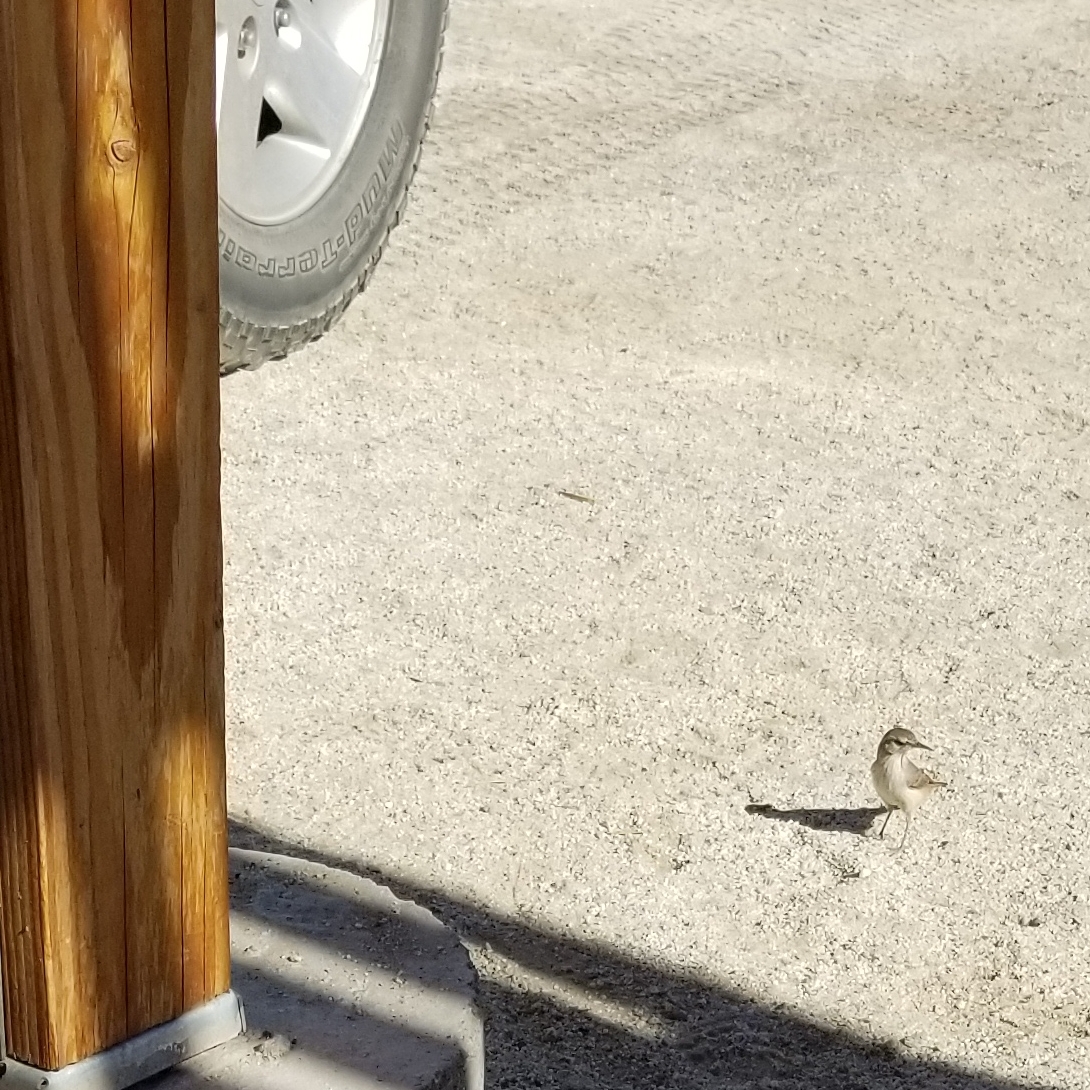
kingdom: Animalia
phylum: Chordata
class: Aves
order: Passeriformes
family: Troglodytidae
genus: Salpinctes
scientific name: Salpinctes obsoletus
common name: Rock wren
